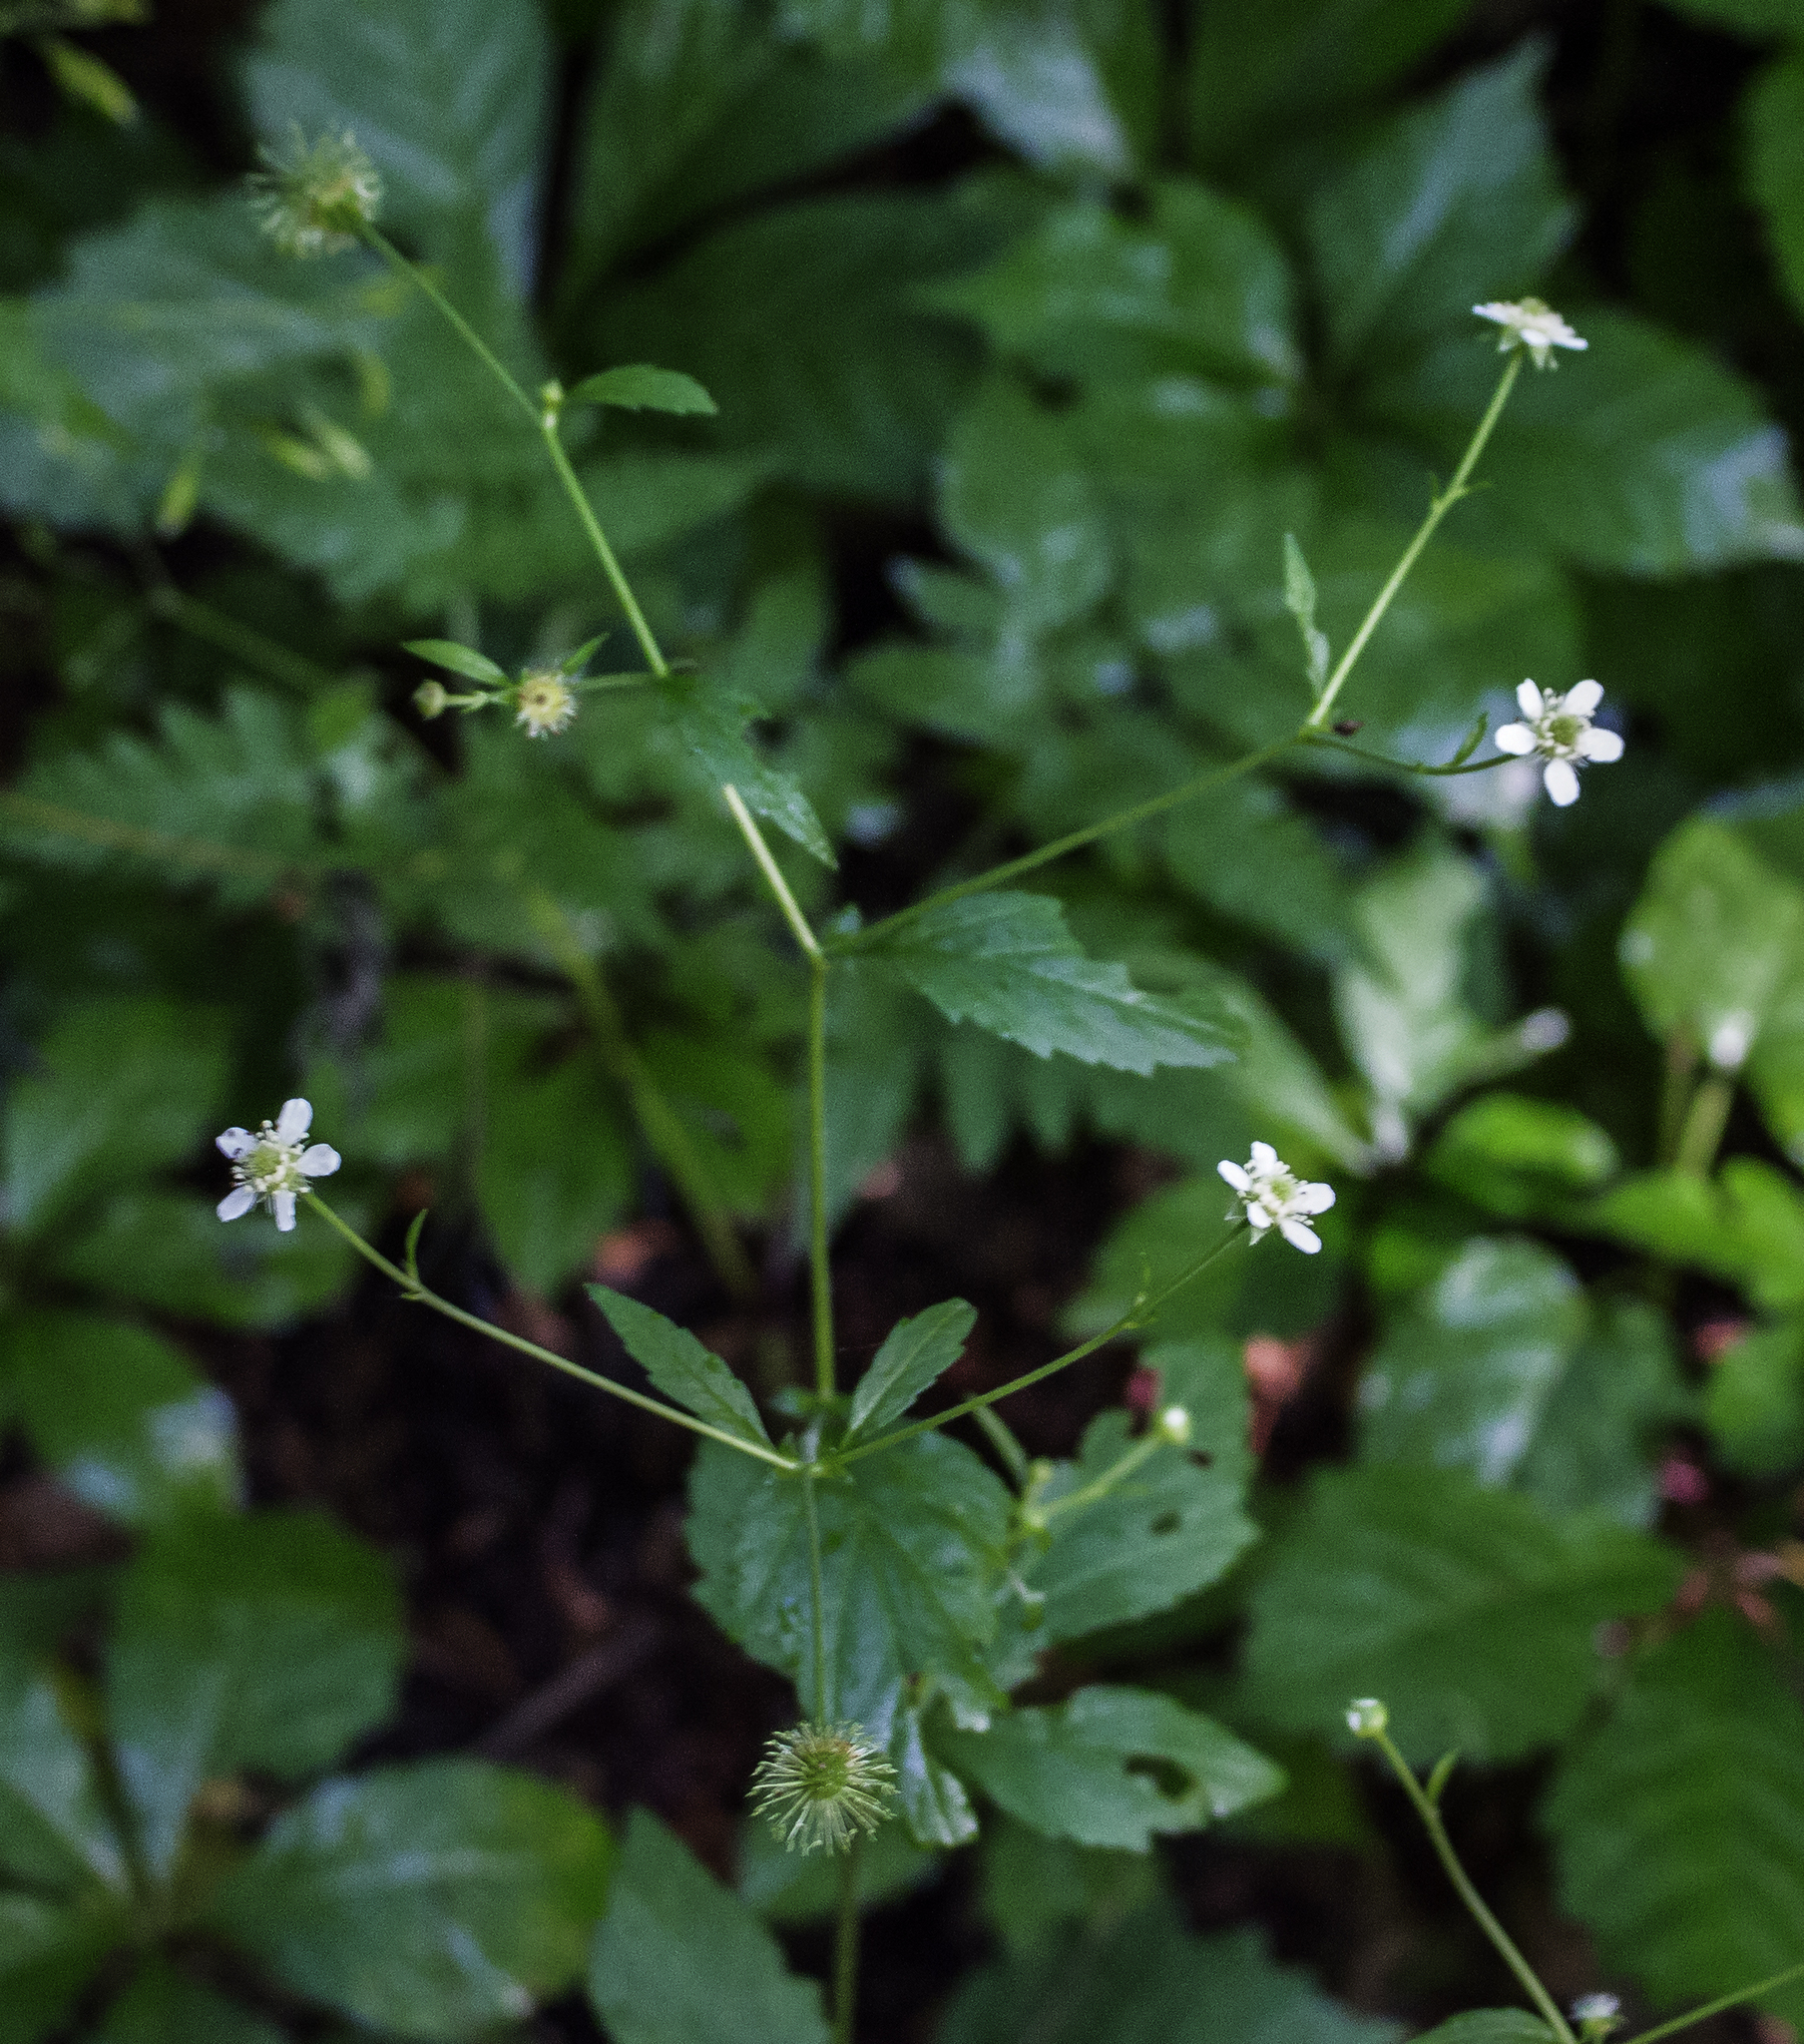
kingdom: Plantae
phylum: Tracheophyta
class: Magnoliopsida
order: Rosales
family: Rosaceae
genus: Geum
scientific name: Geum canadense
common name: White avens
